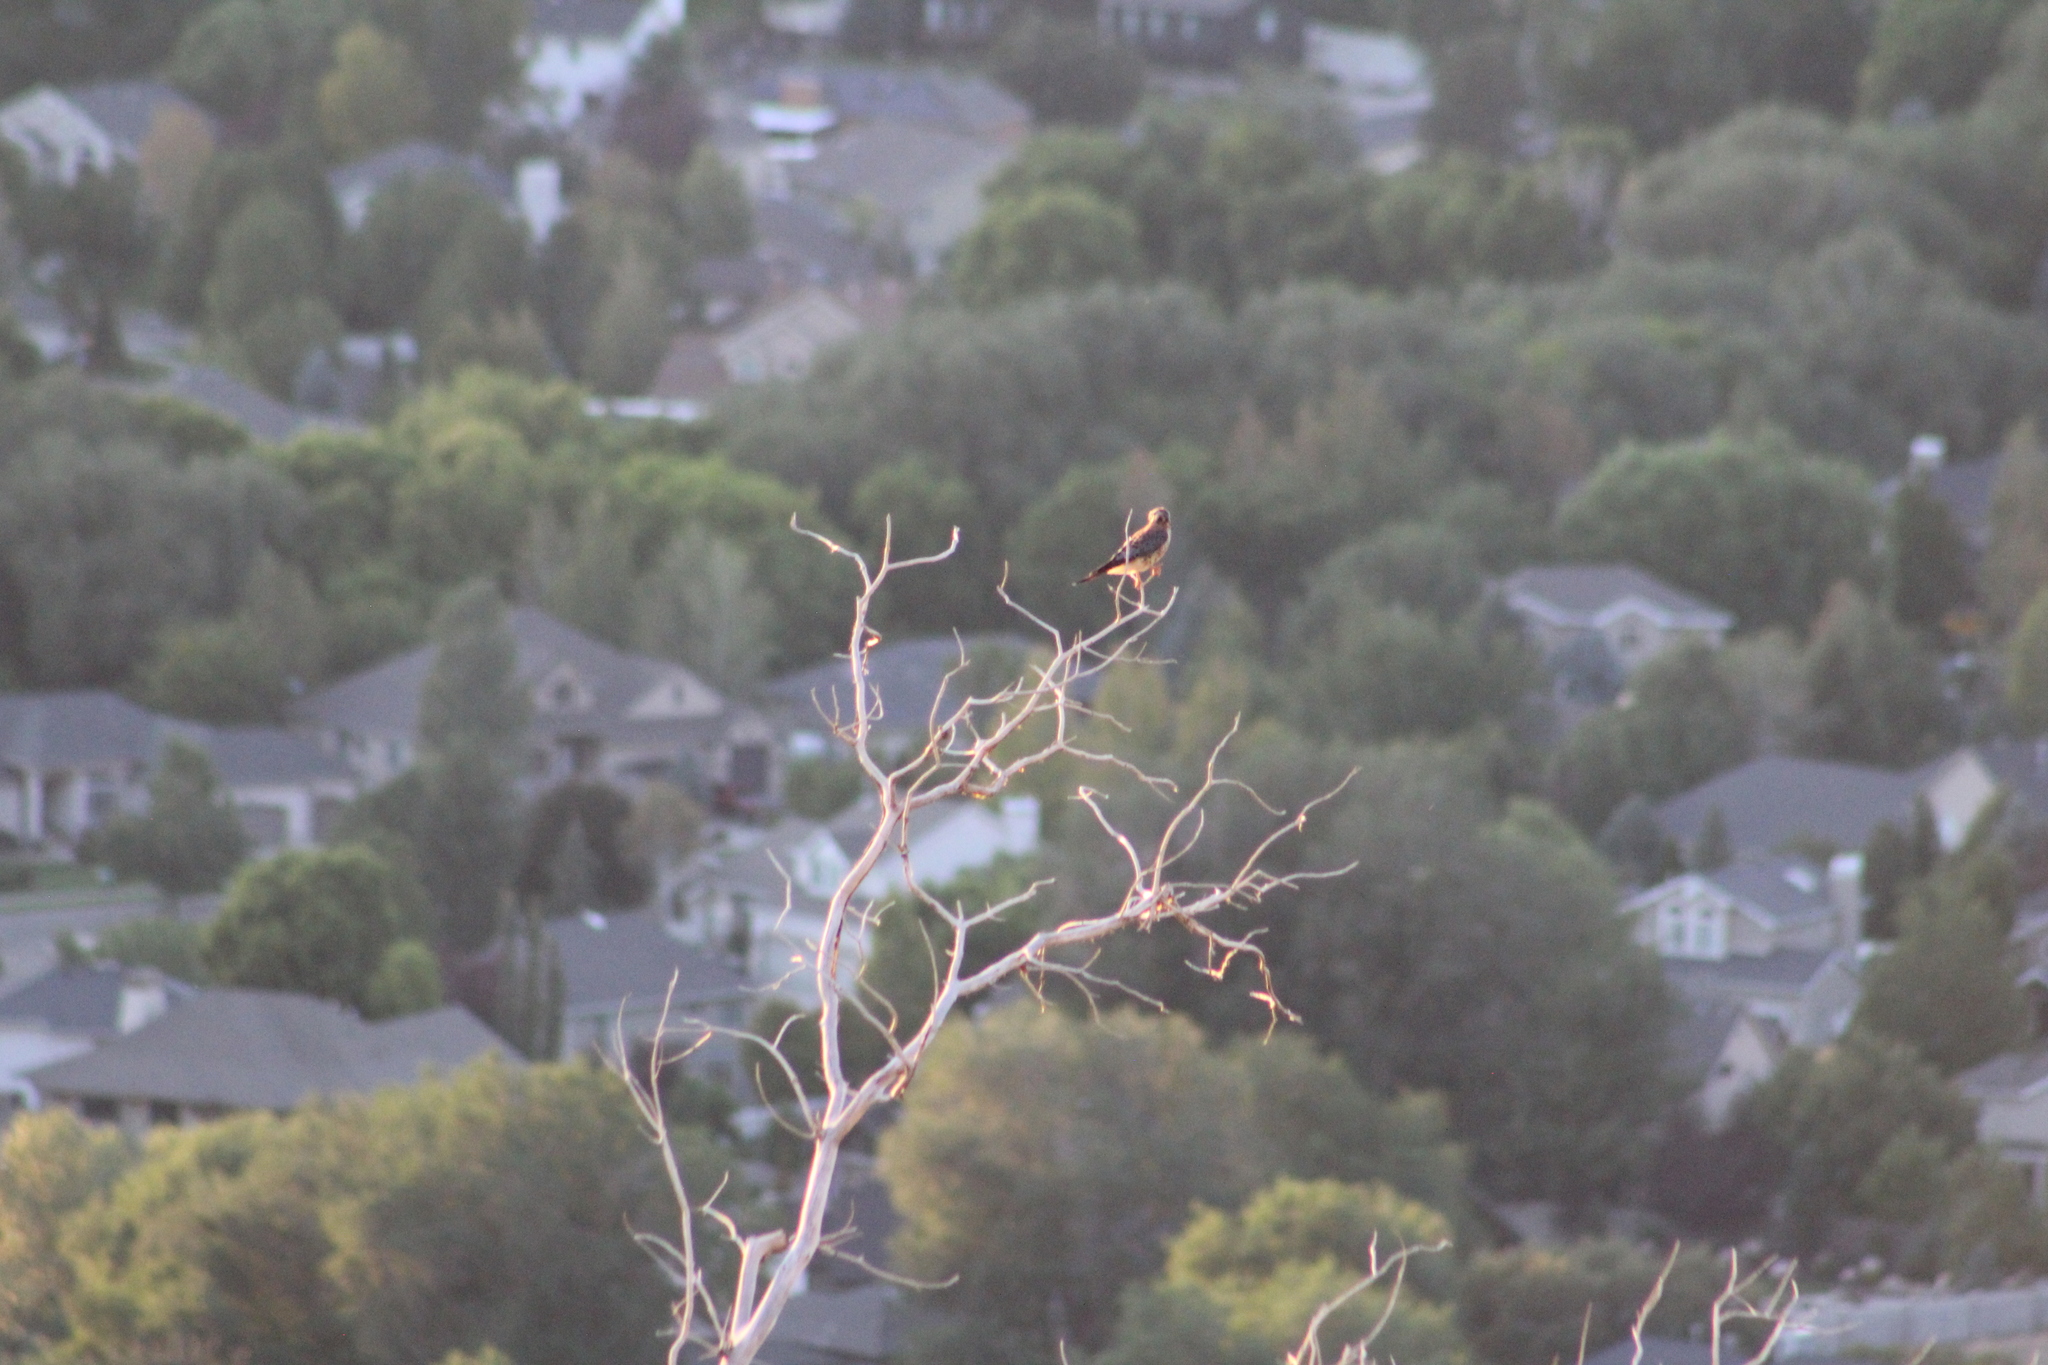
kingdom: Animalia
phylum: Chordata
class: Aves
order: Falconiformes
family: Falconidae
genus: Falco
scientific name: Falco sparverius
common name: American kestrel
